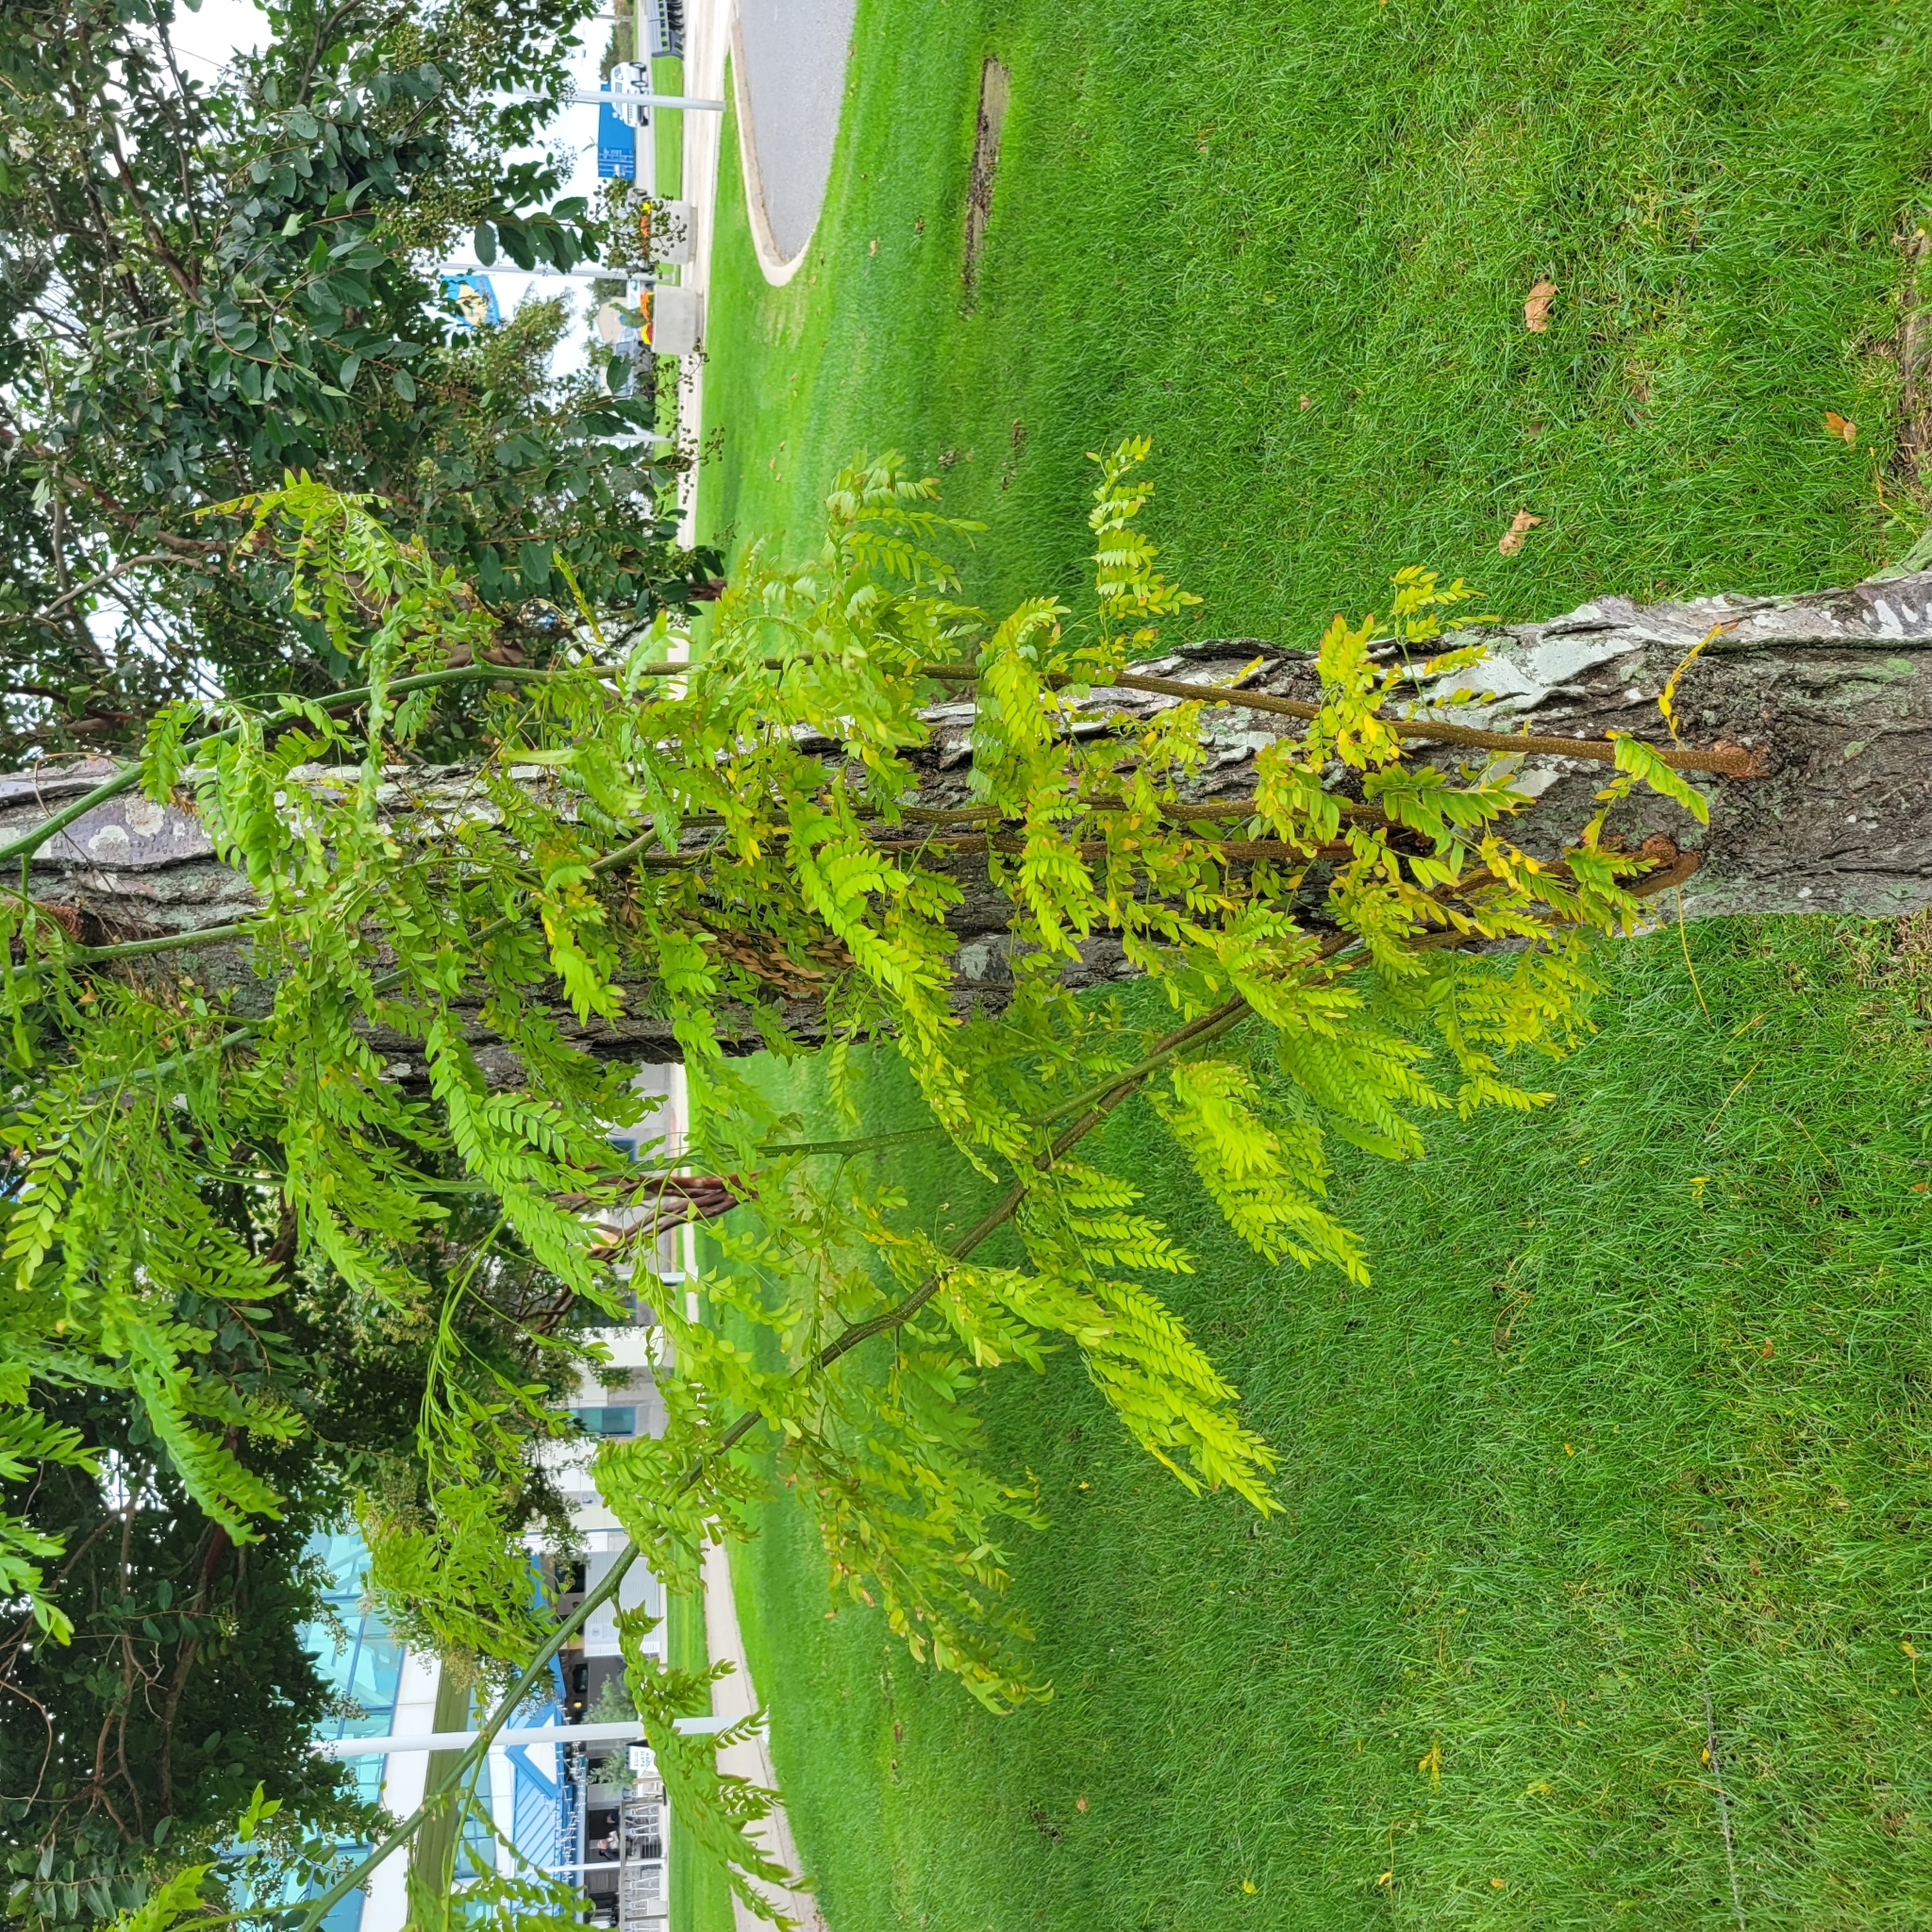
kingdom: Plantae
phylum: Tracheophyta
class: Magnoliopsida
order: Fabales
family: Fabaceae
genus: Gleditsia
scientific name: Gleditsia triacanthos
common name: Common honeylocust
